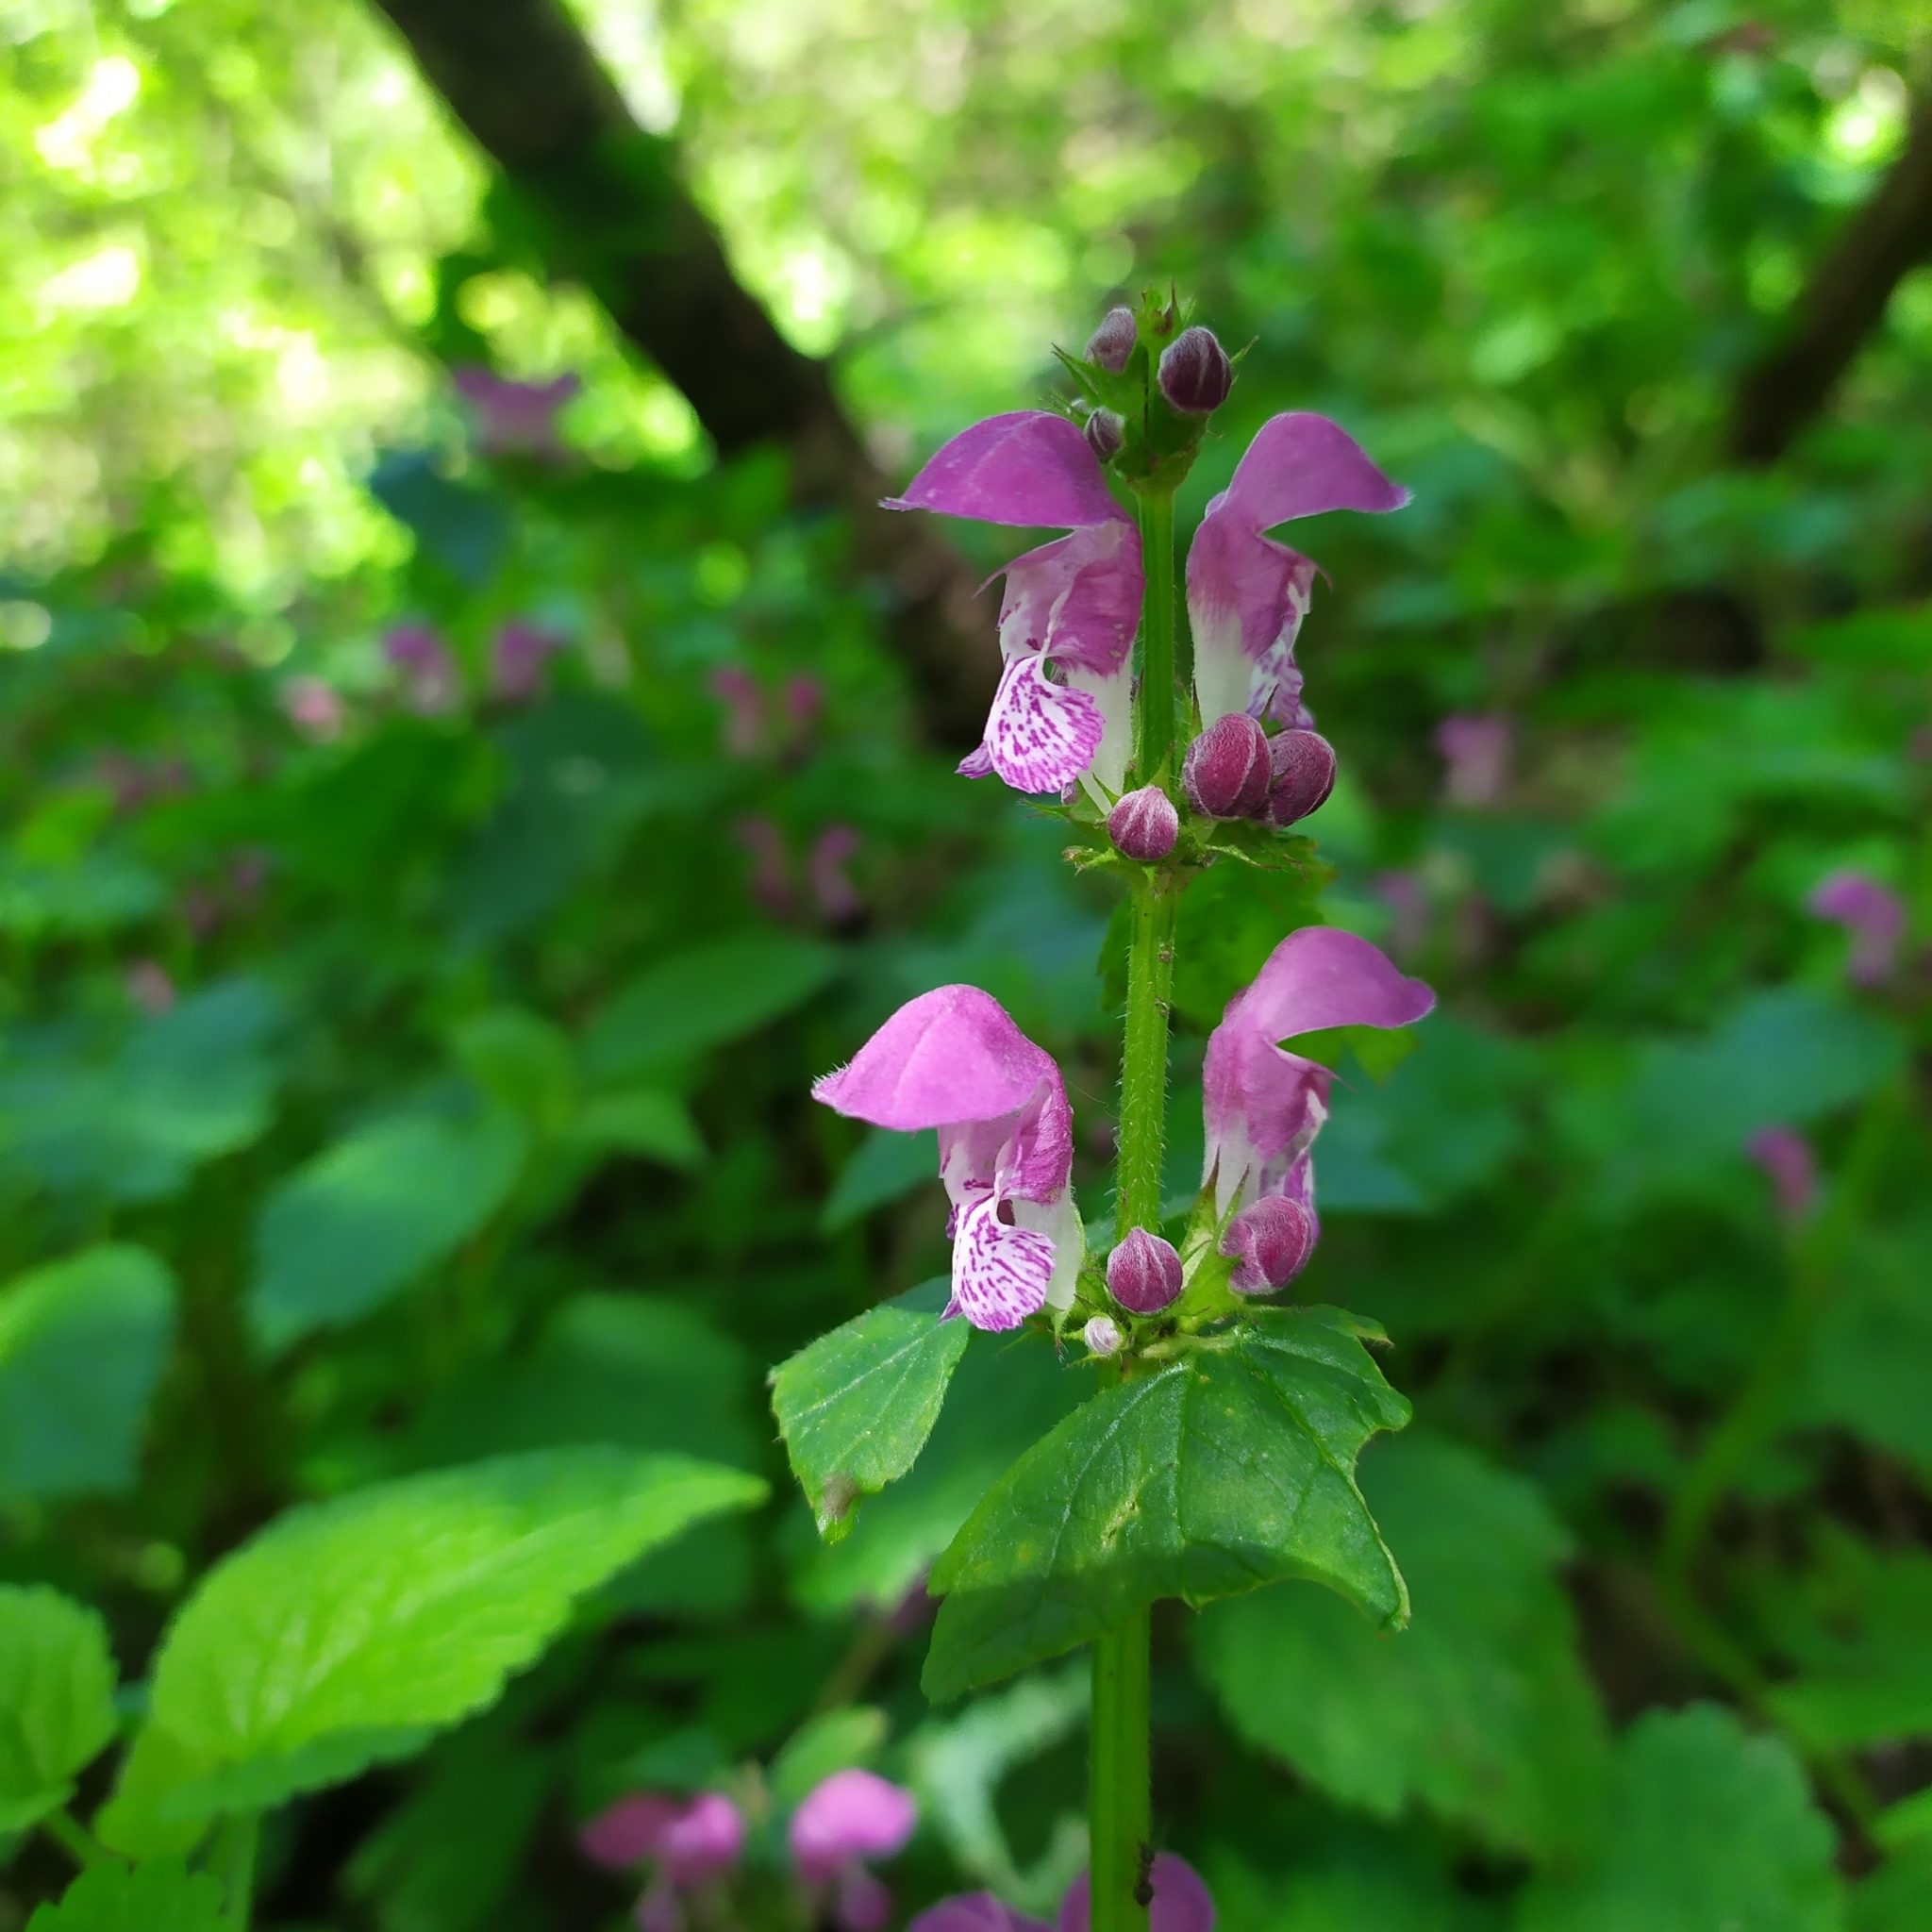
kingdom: Plantae
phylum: Tracheophyta
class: Magnoliopsida
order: Lamiales
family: Lamiaceae
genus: Lamium
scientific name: Lamium maculatum
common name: Spotted dead-nettle
